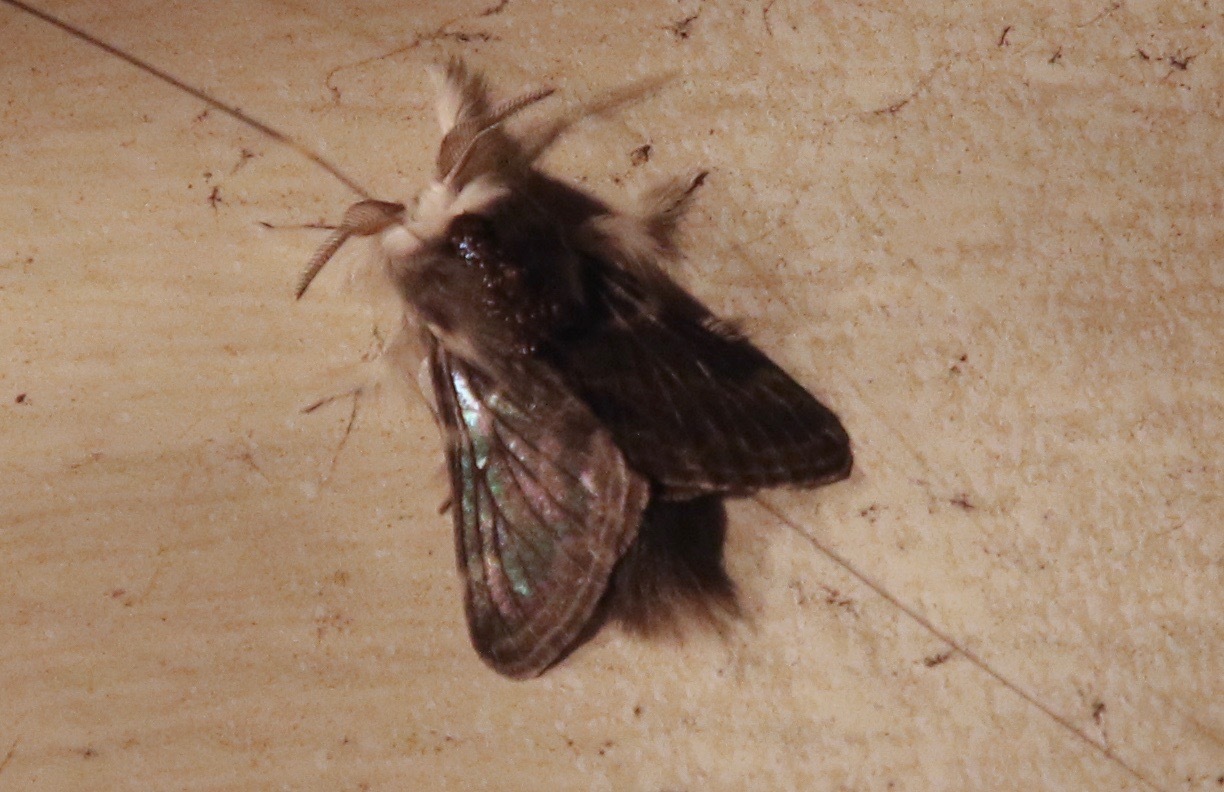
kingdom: Animalia
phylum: Arthropoda
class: Insecta
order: Lepidoptera
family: Lasiocampidae
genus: Tolype
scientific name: Tolype laricis
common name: Larch tolype moth
